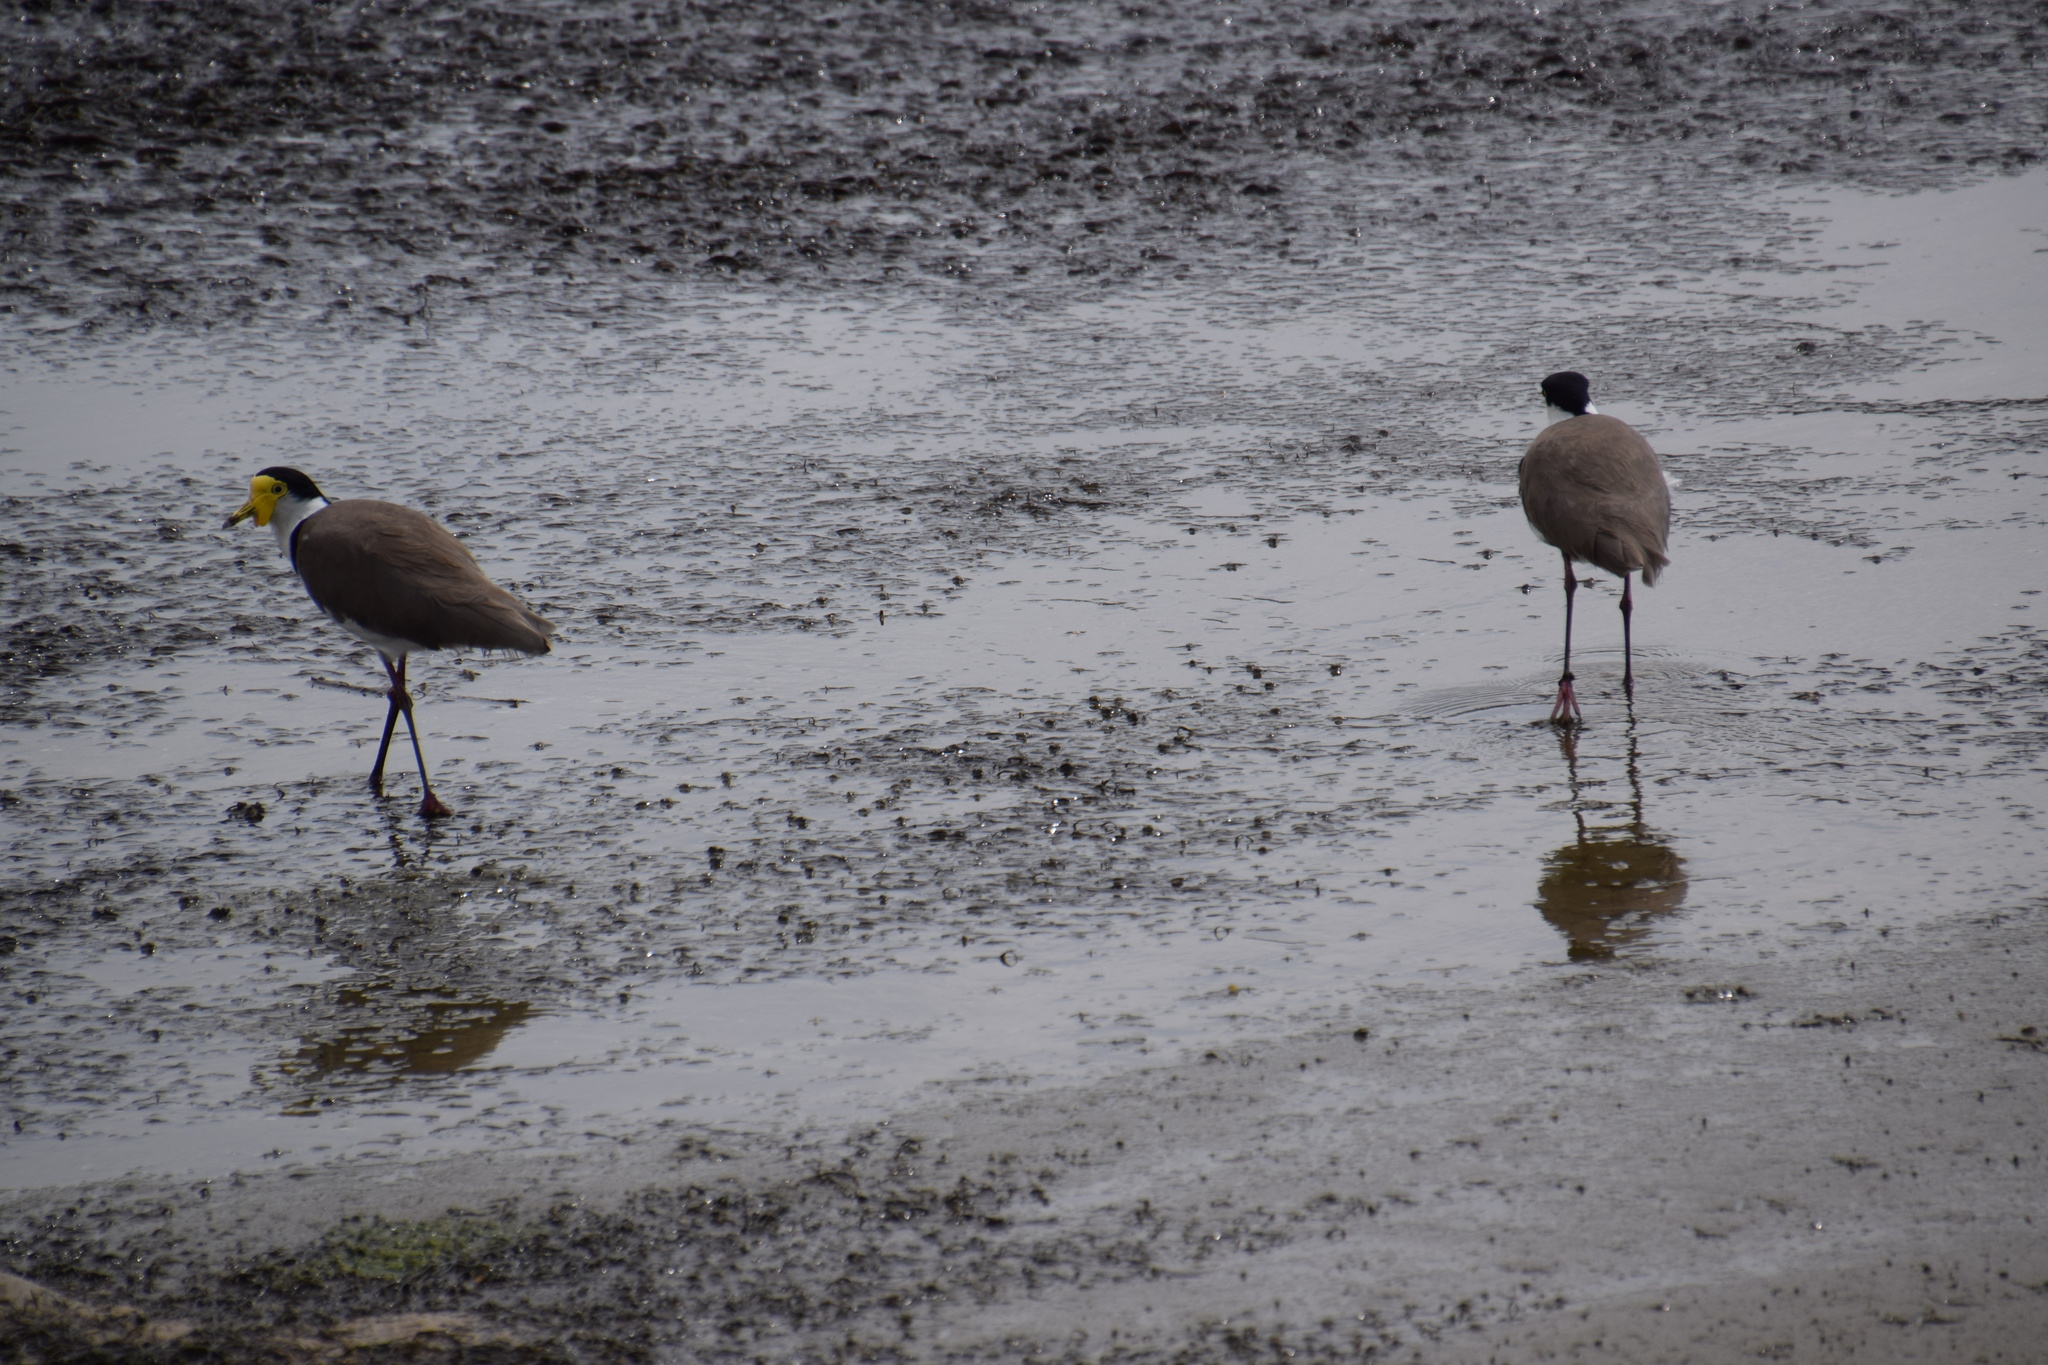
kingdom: Animalia
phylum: Chordata
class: Aves
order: Charadriiformes
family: Charadriidae
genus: Vanellus
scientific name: Vanellus miles
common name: Masked lapwing
